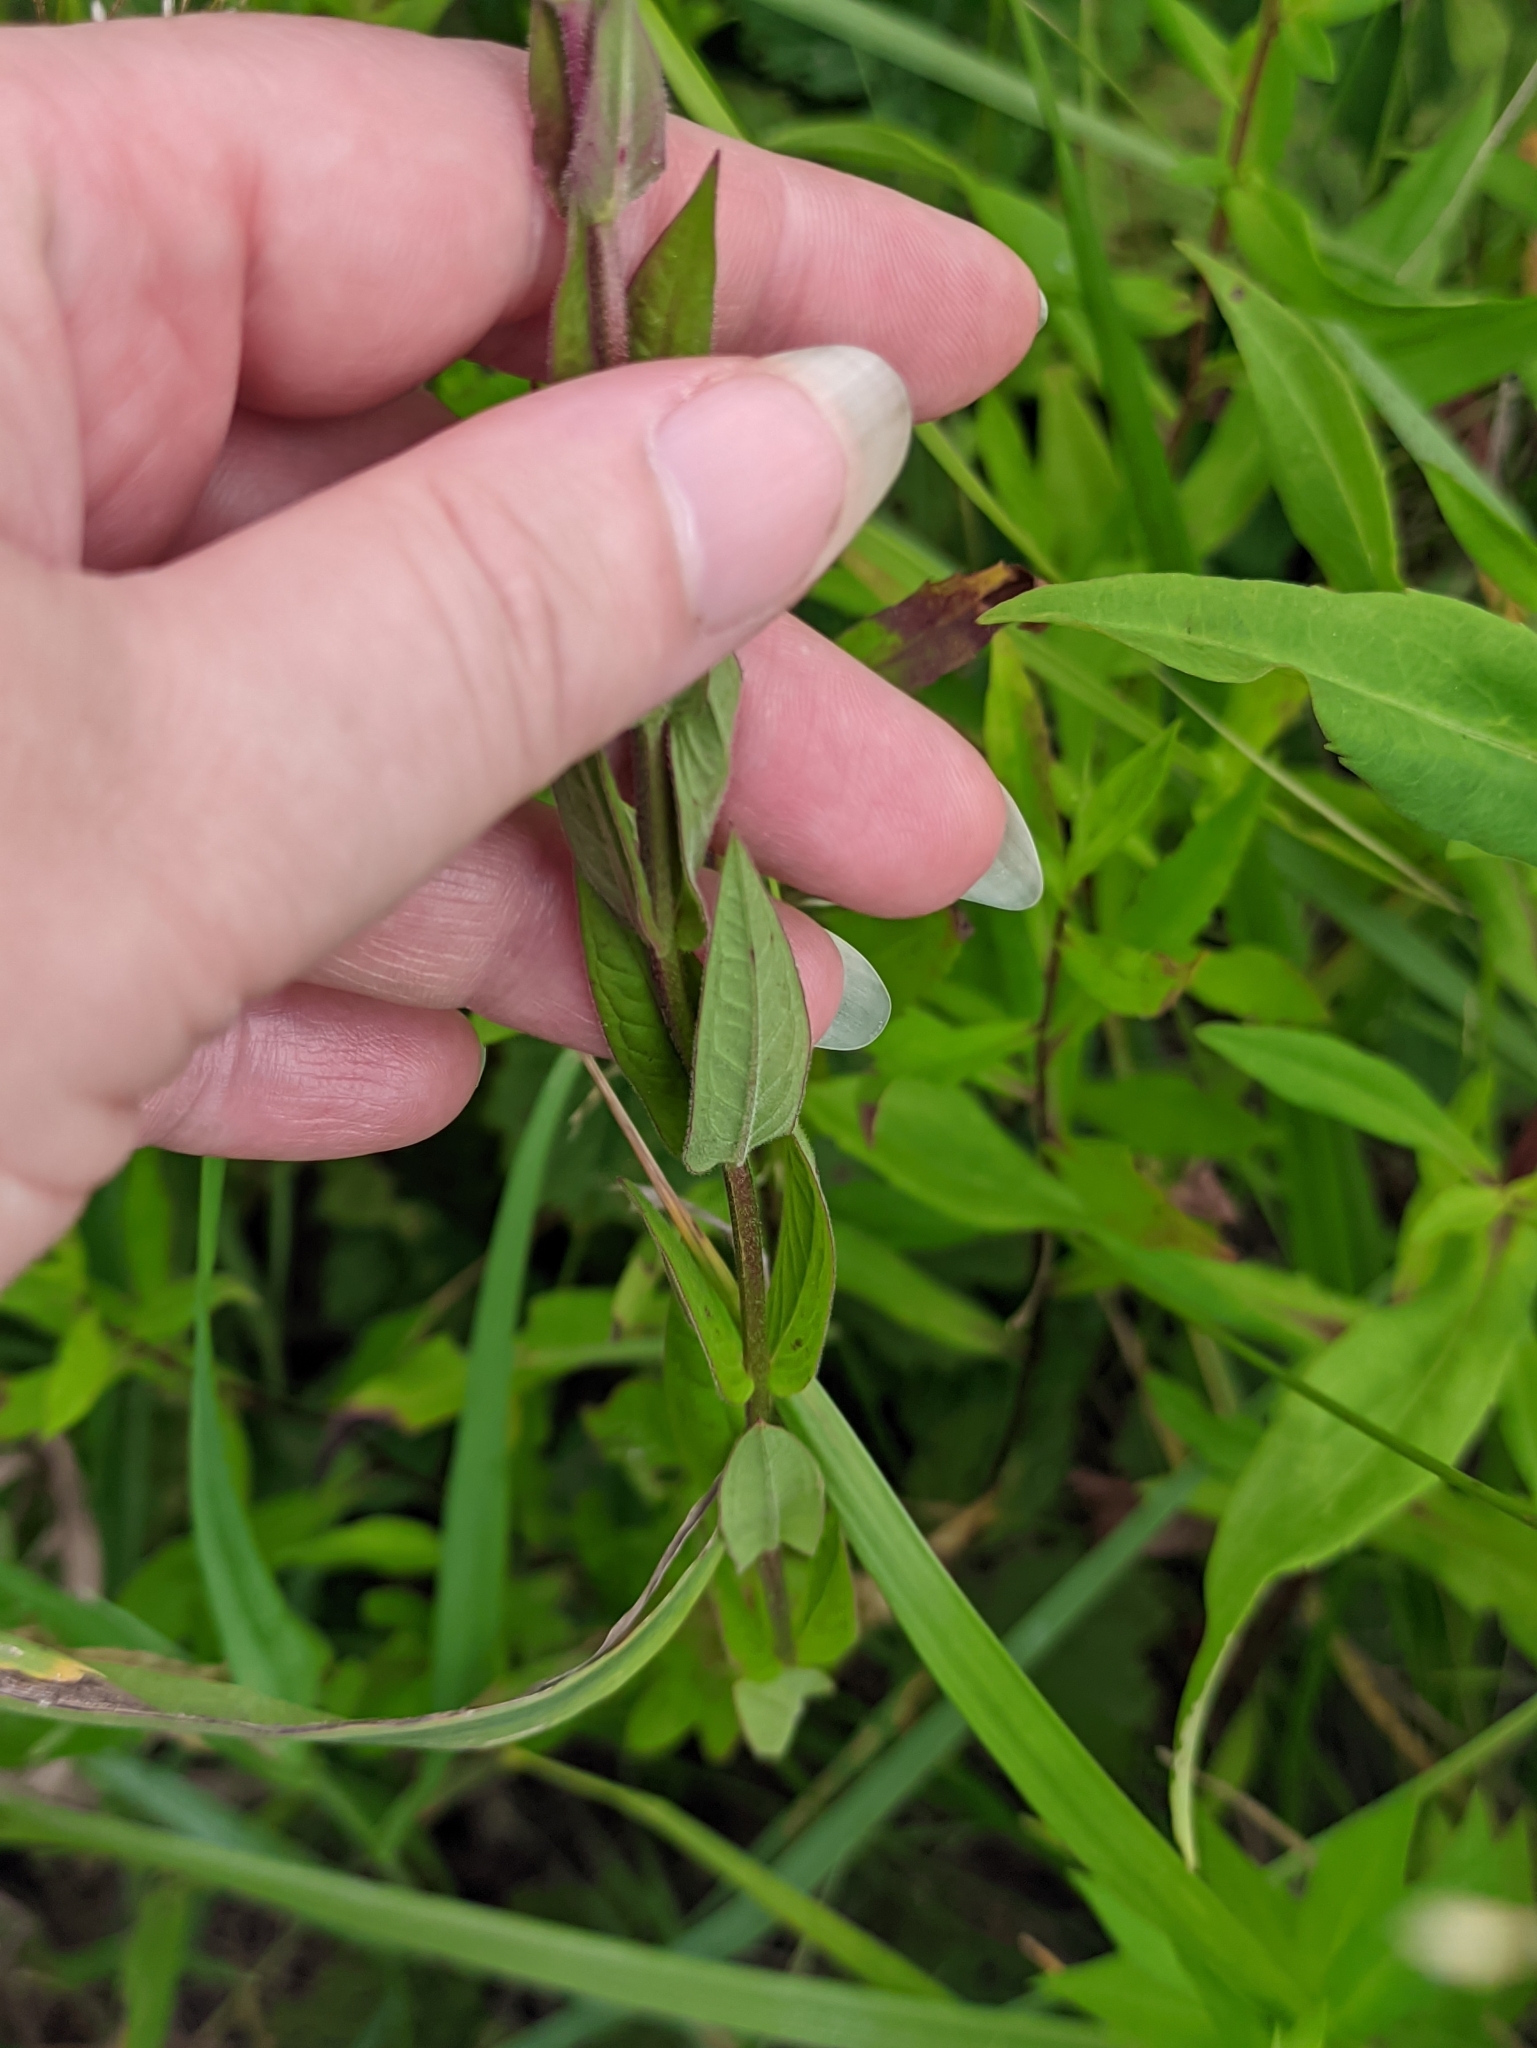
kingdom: Plantae
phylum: Tracheophyta
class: Magnoliopsida
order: Myrtales
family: Lythraceae
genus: Lythrum
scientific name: Lythrum salicaria
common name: Purple loosestrife
